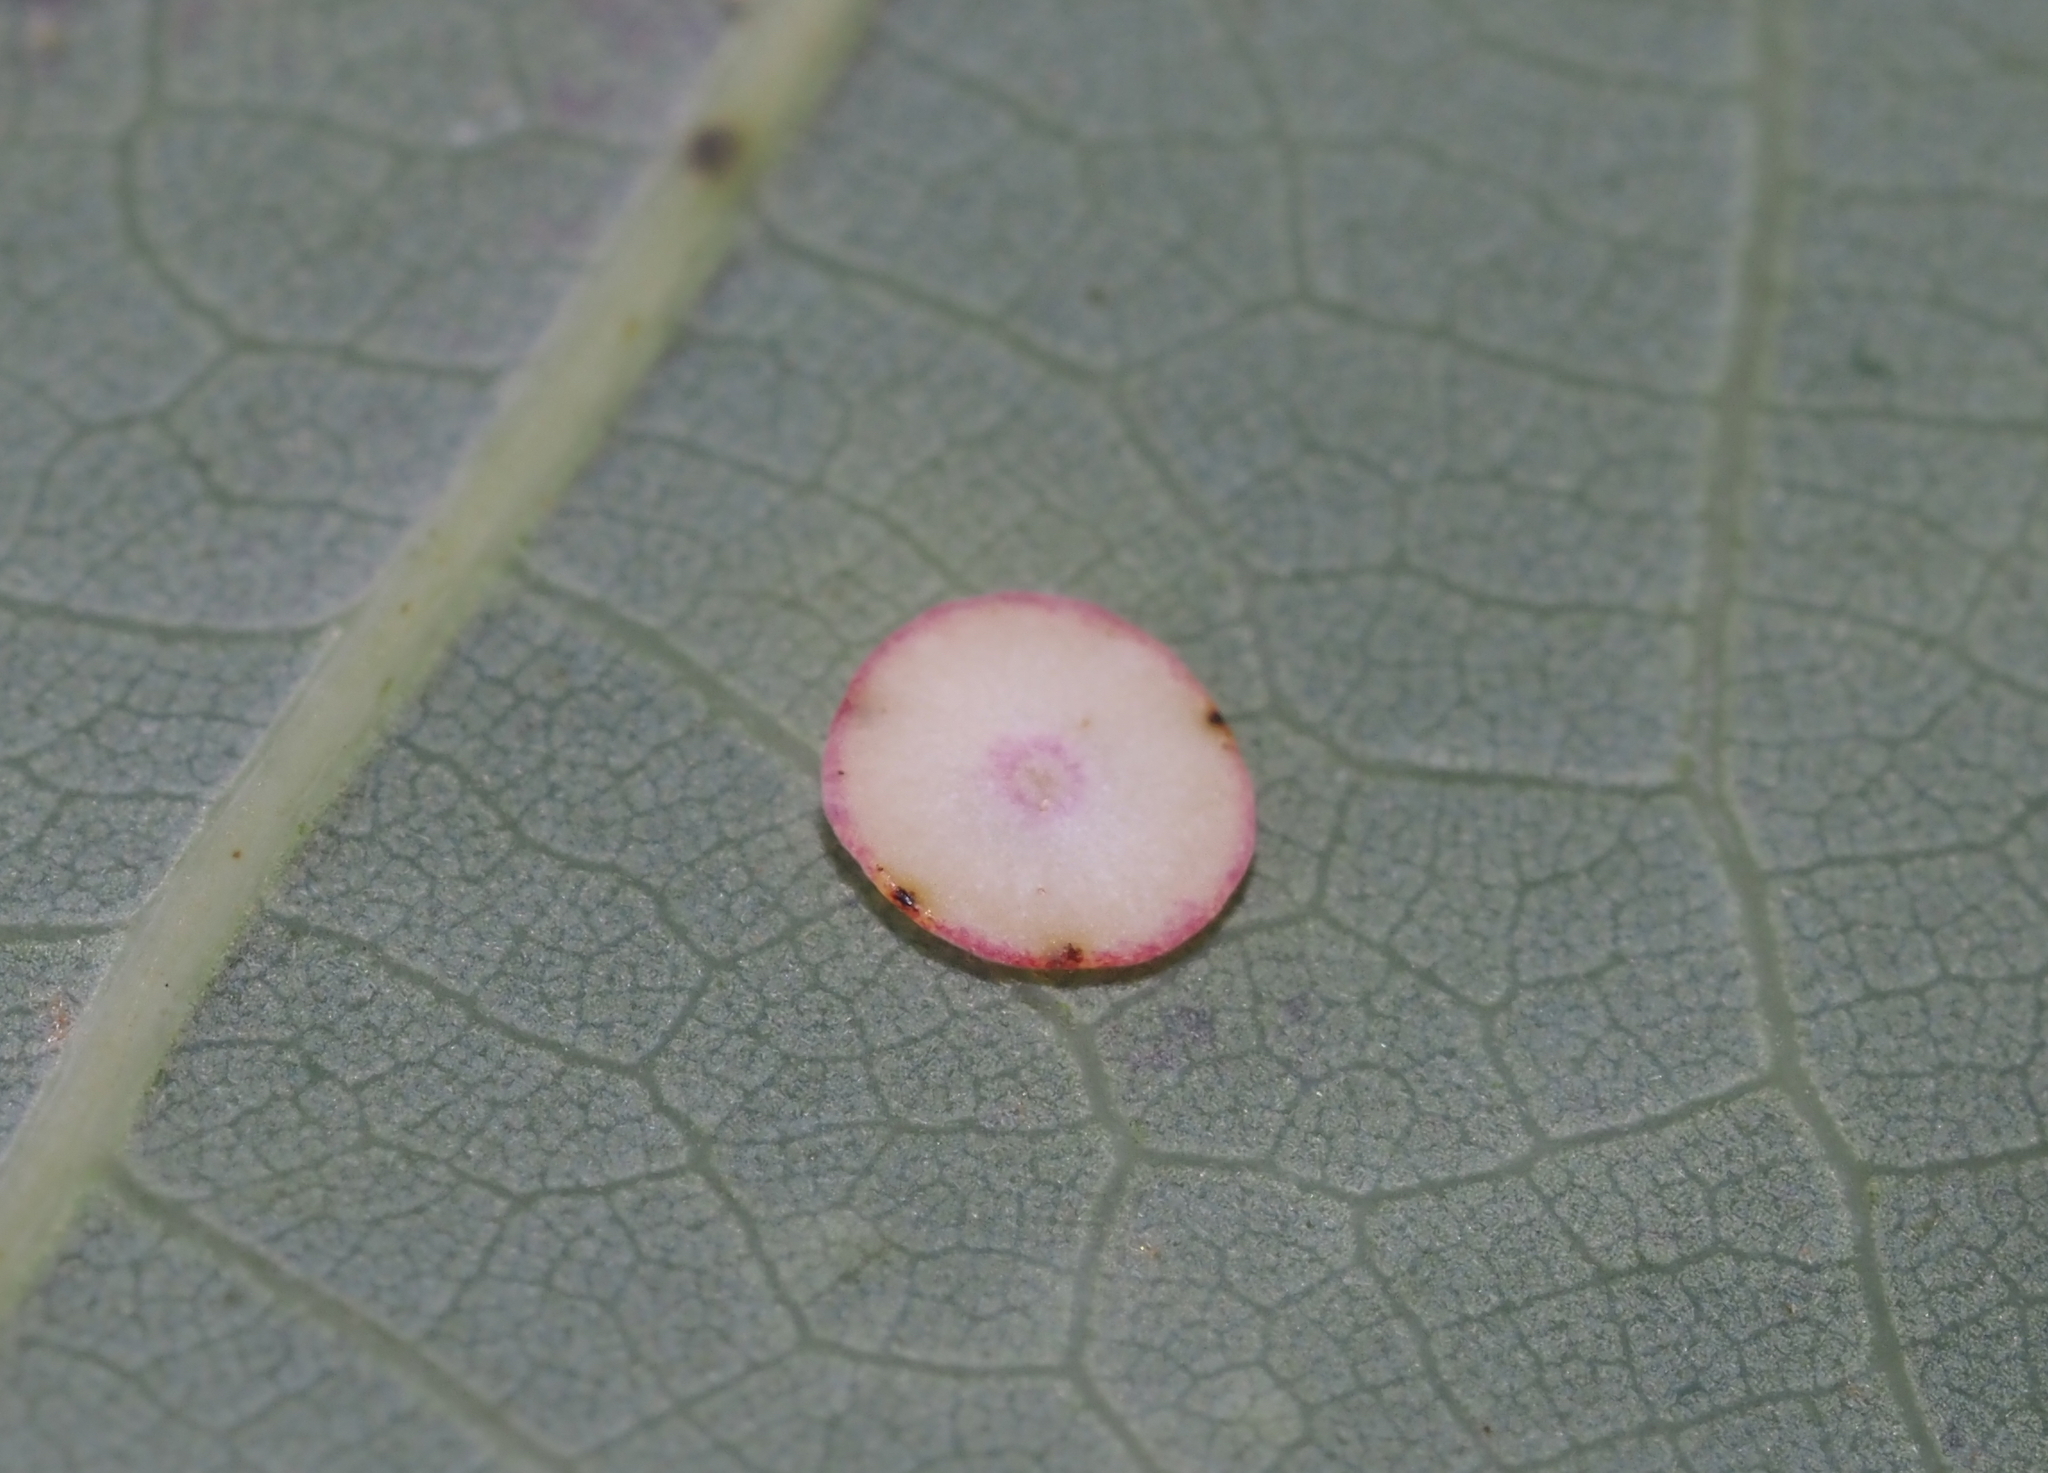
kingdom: Animalia
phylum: Arthropoda
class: Insecta
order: Hymenoptera
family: Cynipidae
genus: Phylloteras
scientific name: Phylloteras poculum
